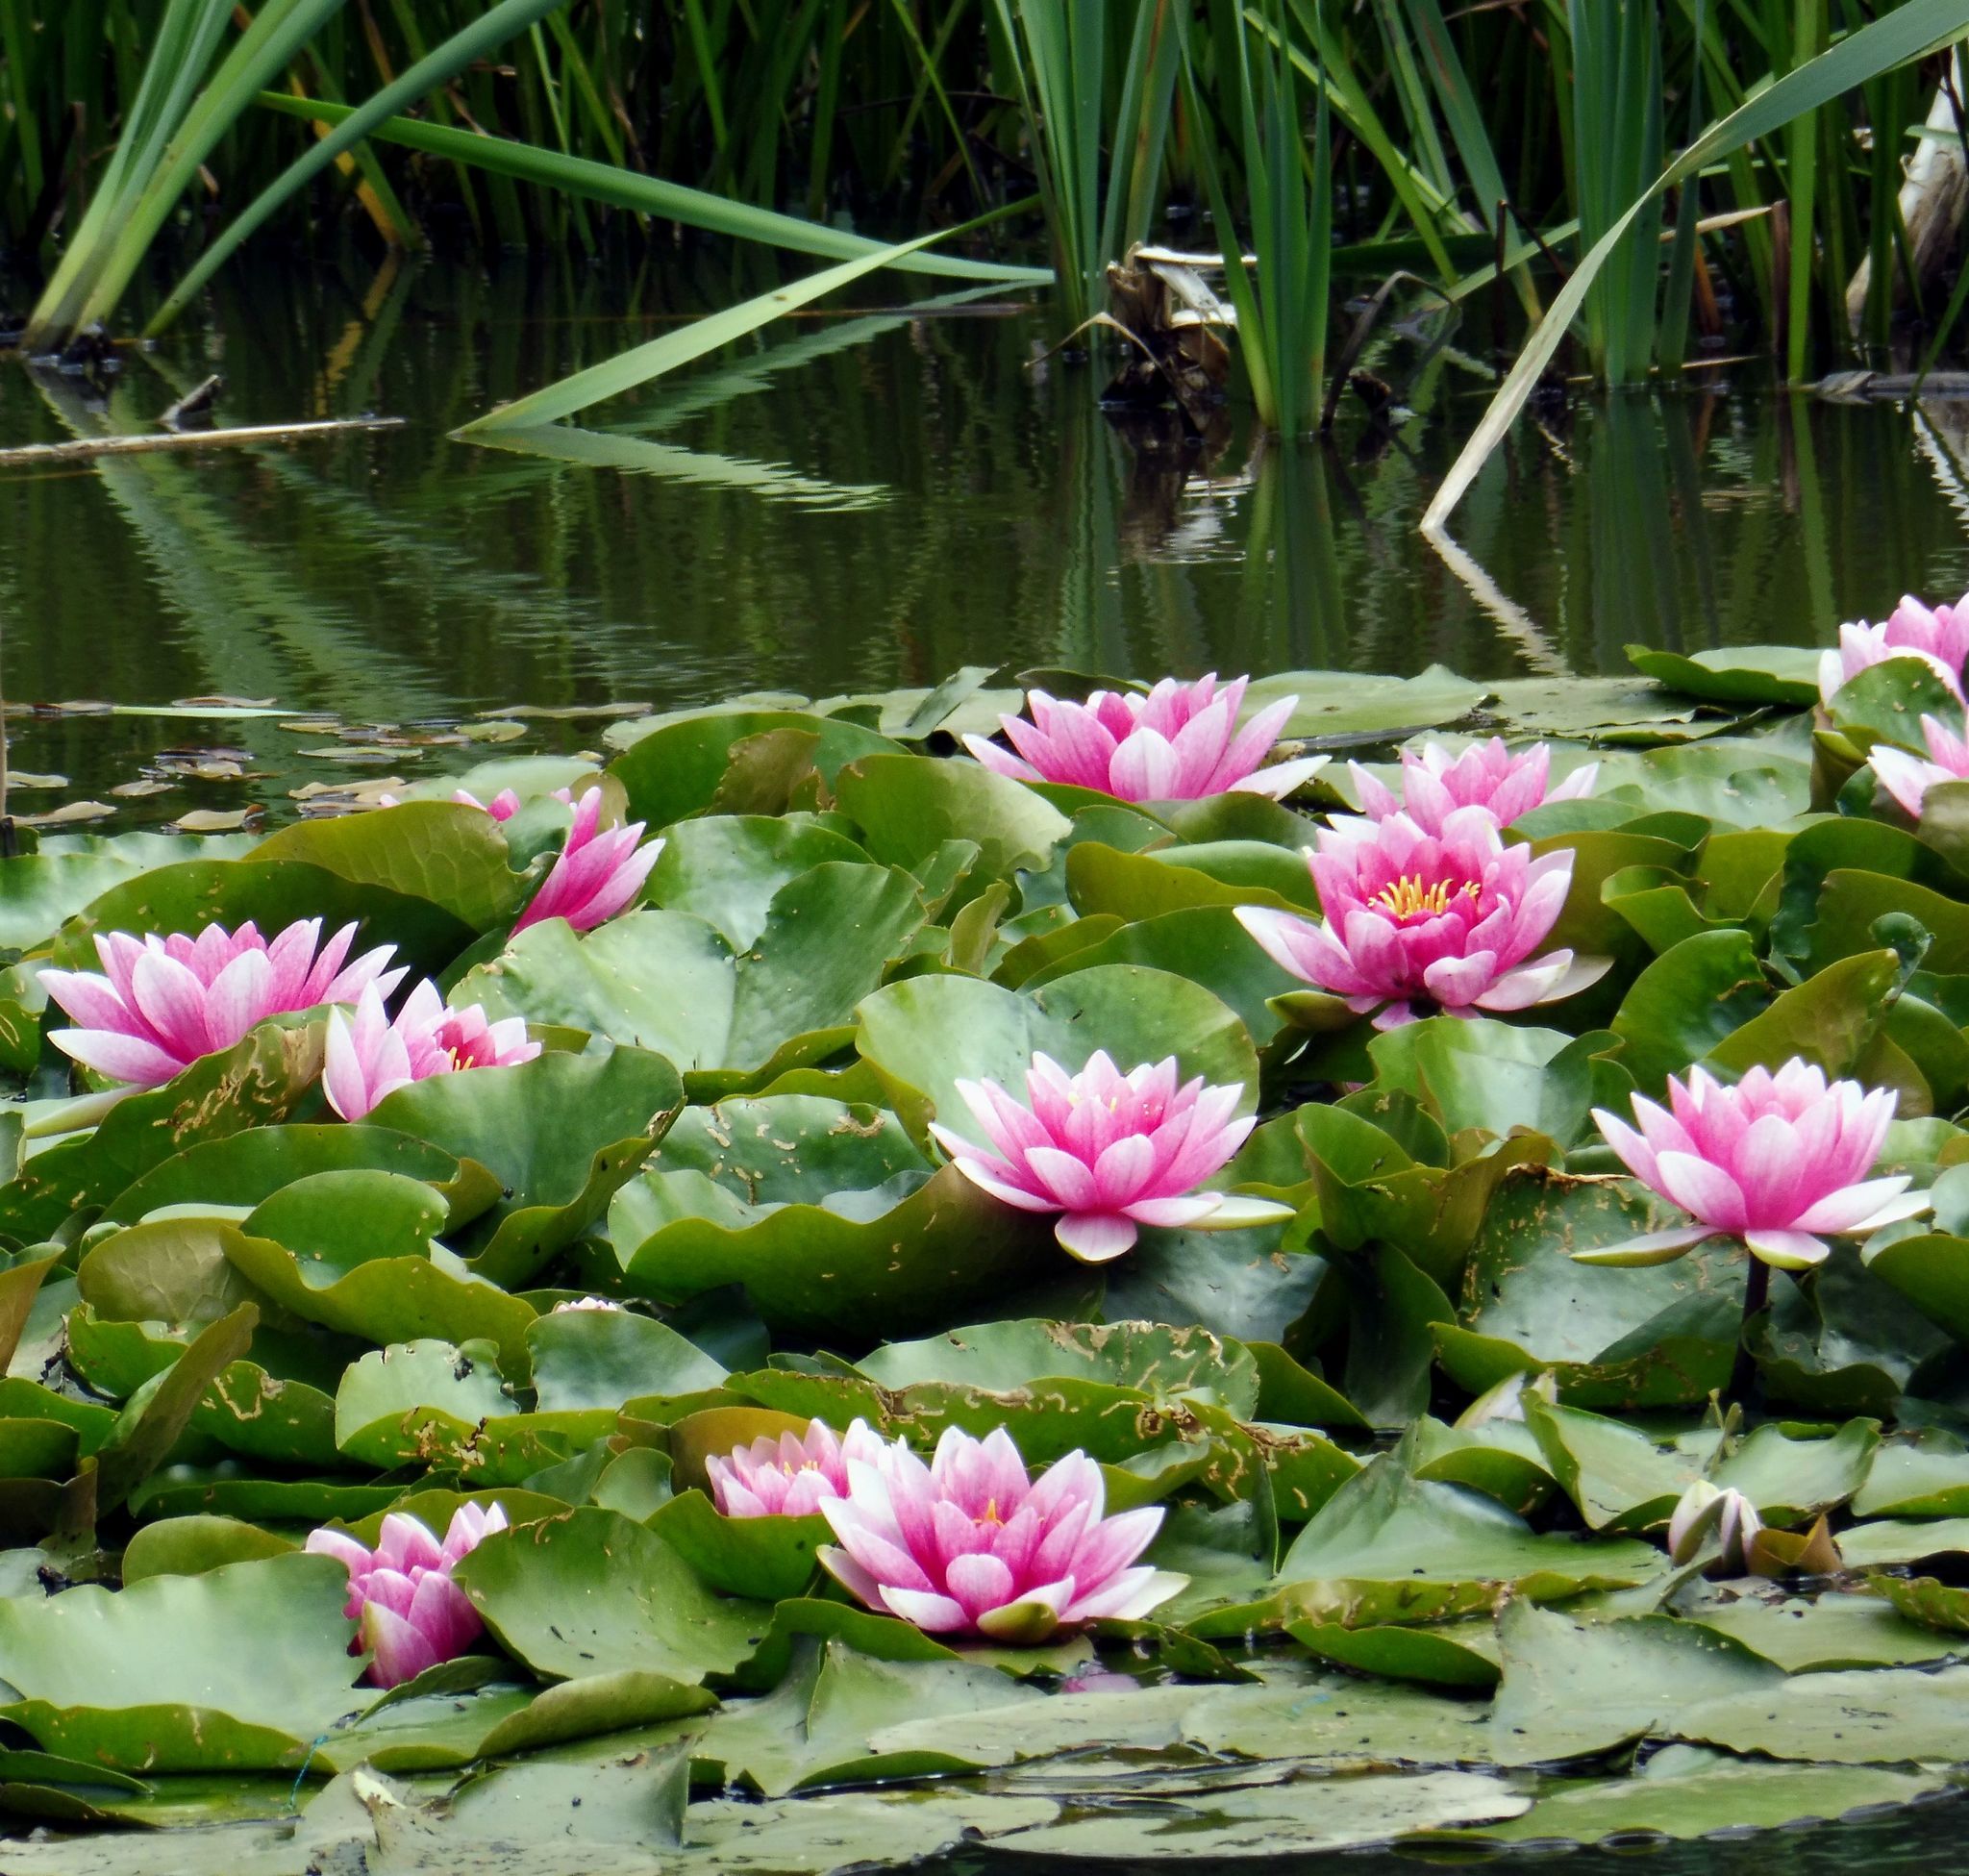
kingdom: Plantae
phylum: Tracheophyta
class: Magnoliopsida
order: Nymphaeales
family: Nymphaeaceae
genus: Nymphaea
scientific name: Nymphaea marliacea
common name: Water-lily
